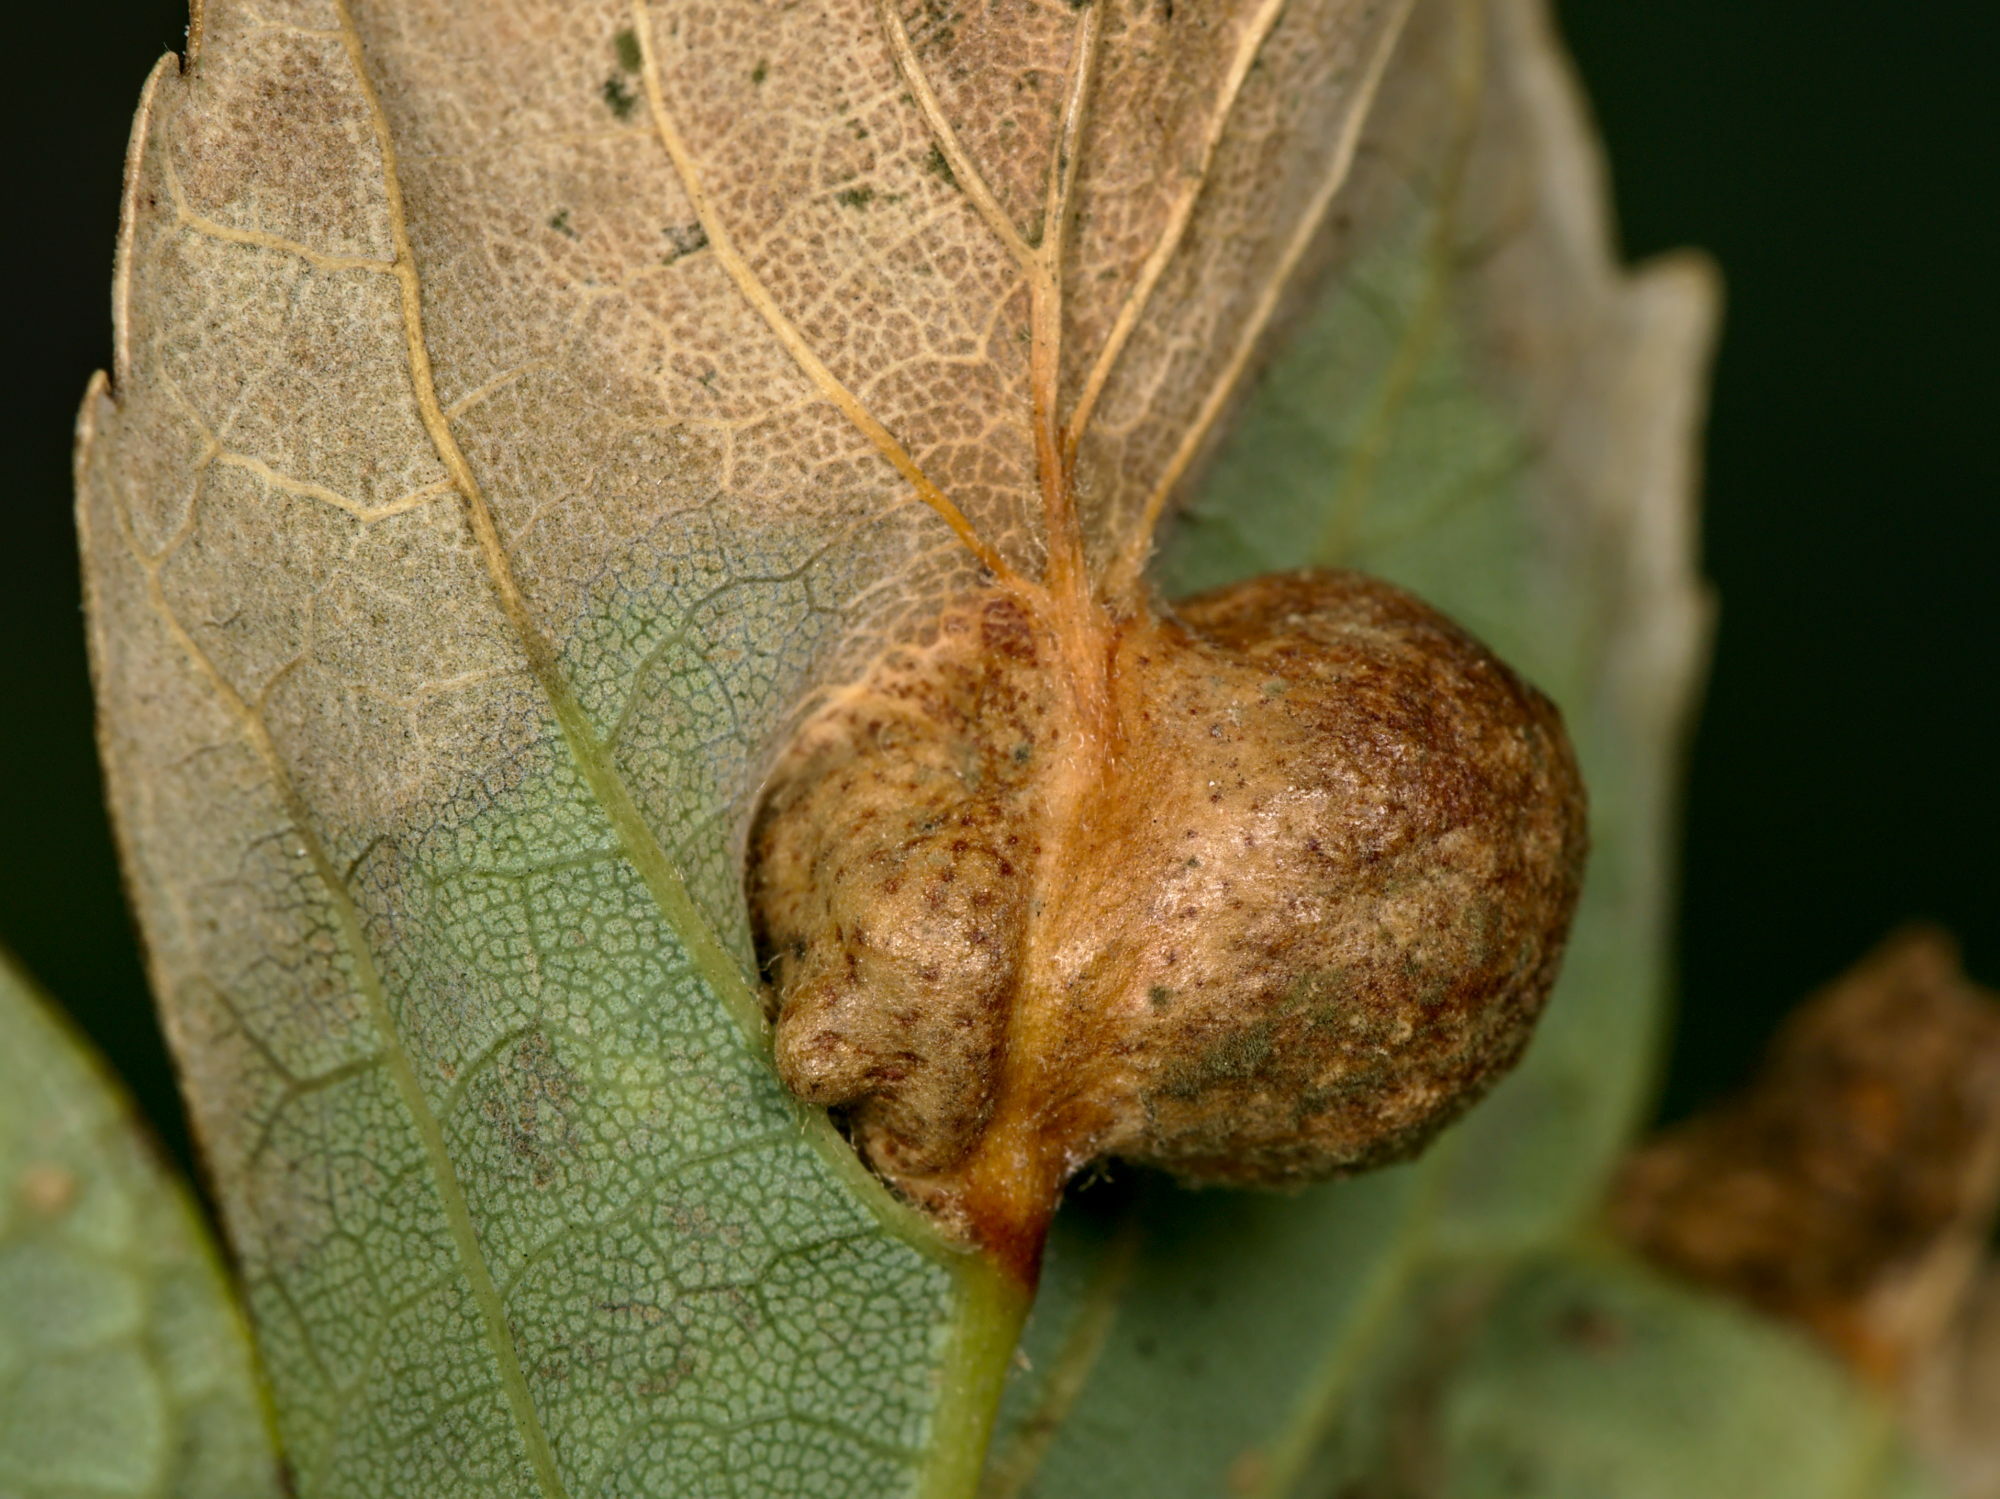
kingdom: Animalia
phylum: Arthropoda
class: Insecta
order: Hymenoptera
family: Cynipidae
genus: Pediaspis
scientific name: Pediaspis aceris
